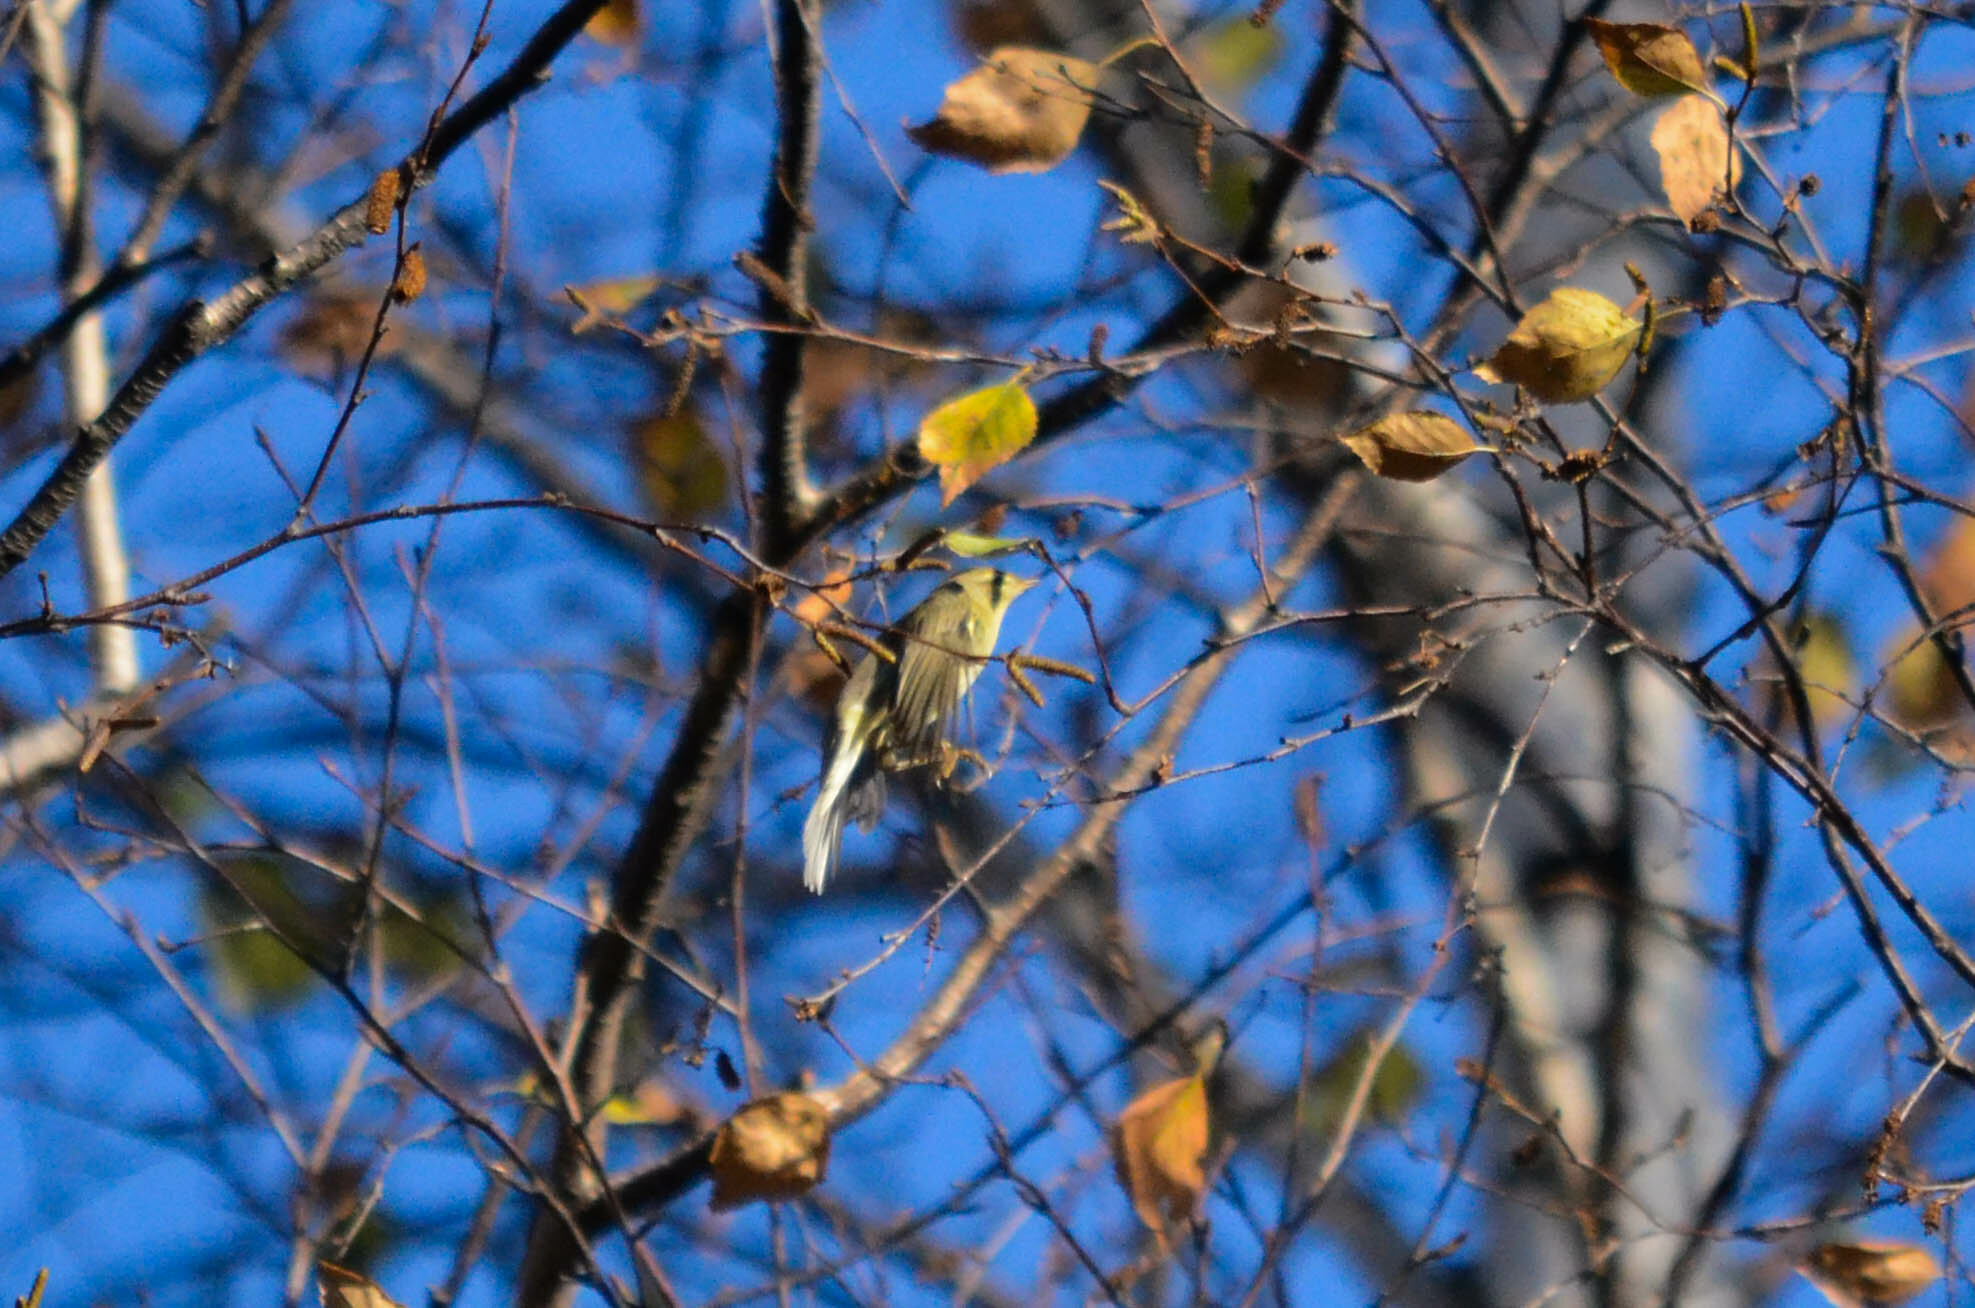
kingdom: Animalia
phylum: Chordata
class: Aves
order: Passeriformes
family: Phylloscopidae
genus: Phylloscopus
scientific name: Phylloscopus trochilus
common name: Willow warbler
